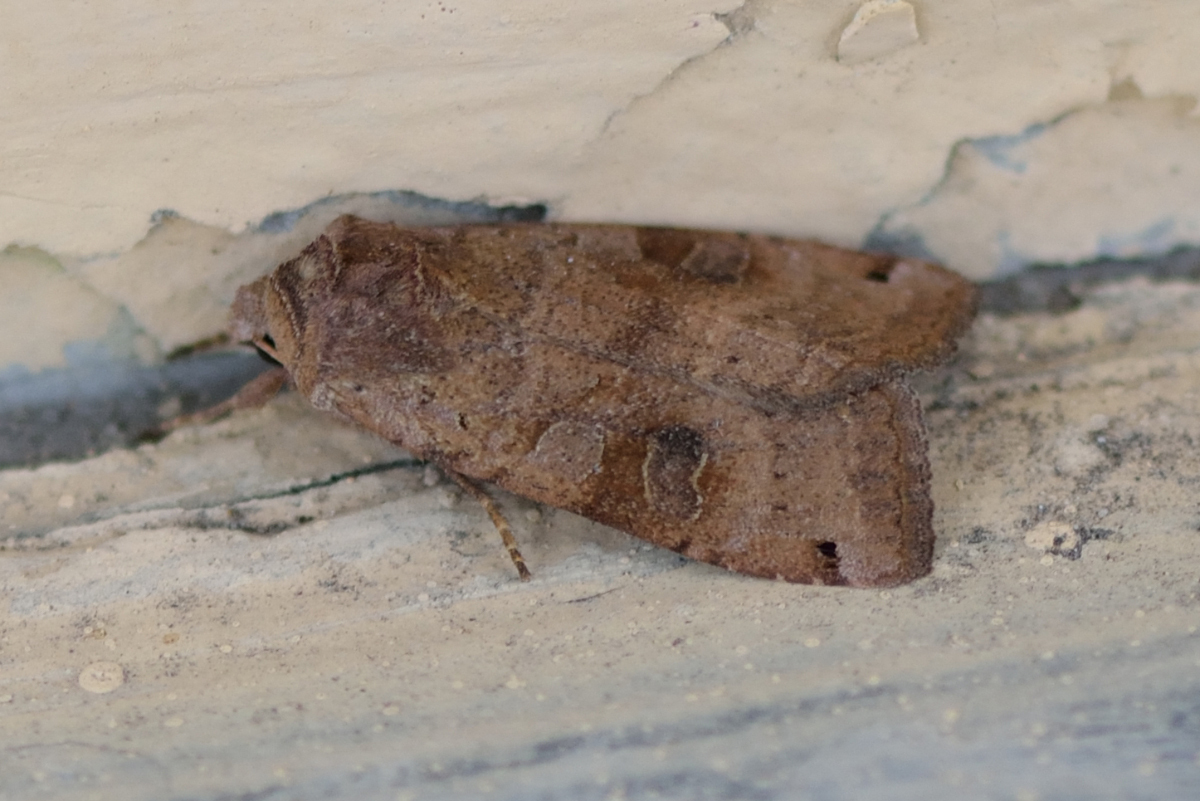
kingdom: Animalia
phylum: Arthropoda
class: Insecta
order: Lepidoptera
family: Noctuidae
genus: Xestia
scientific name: Xestia baja
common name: Dotted clay
